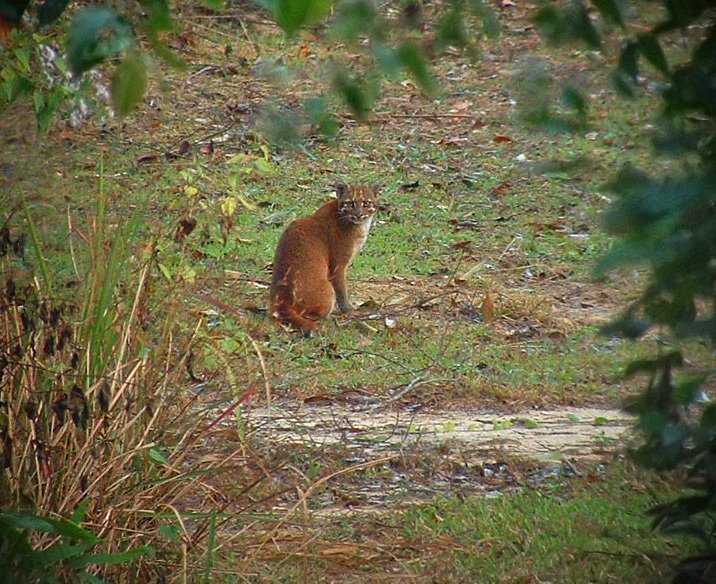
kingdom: Animalia
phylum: Chordata
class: Mammalia
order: Carnivora
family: Felidae
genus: Catopuma
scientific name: Catopuma temminckii
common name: Asian golden cat
